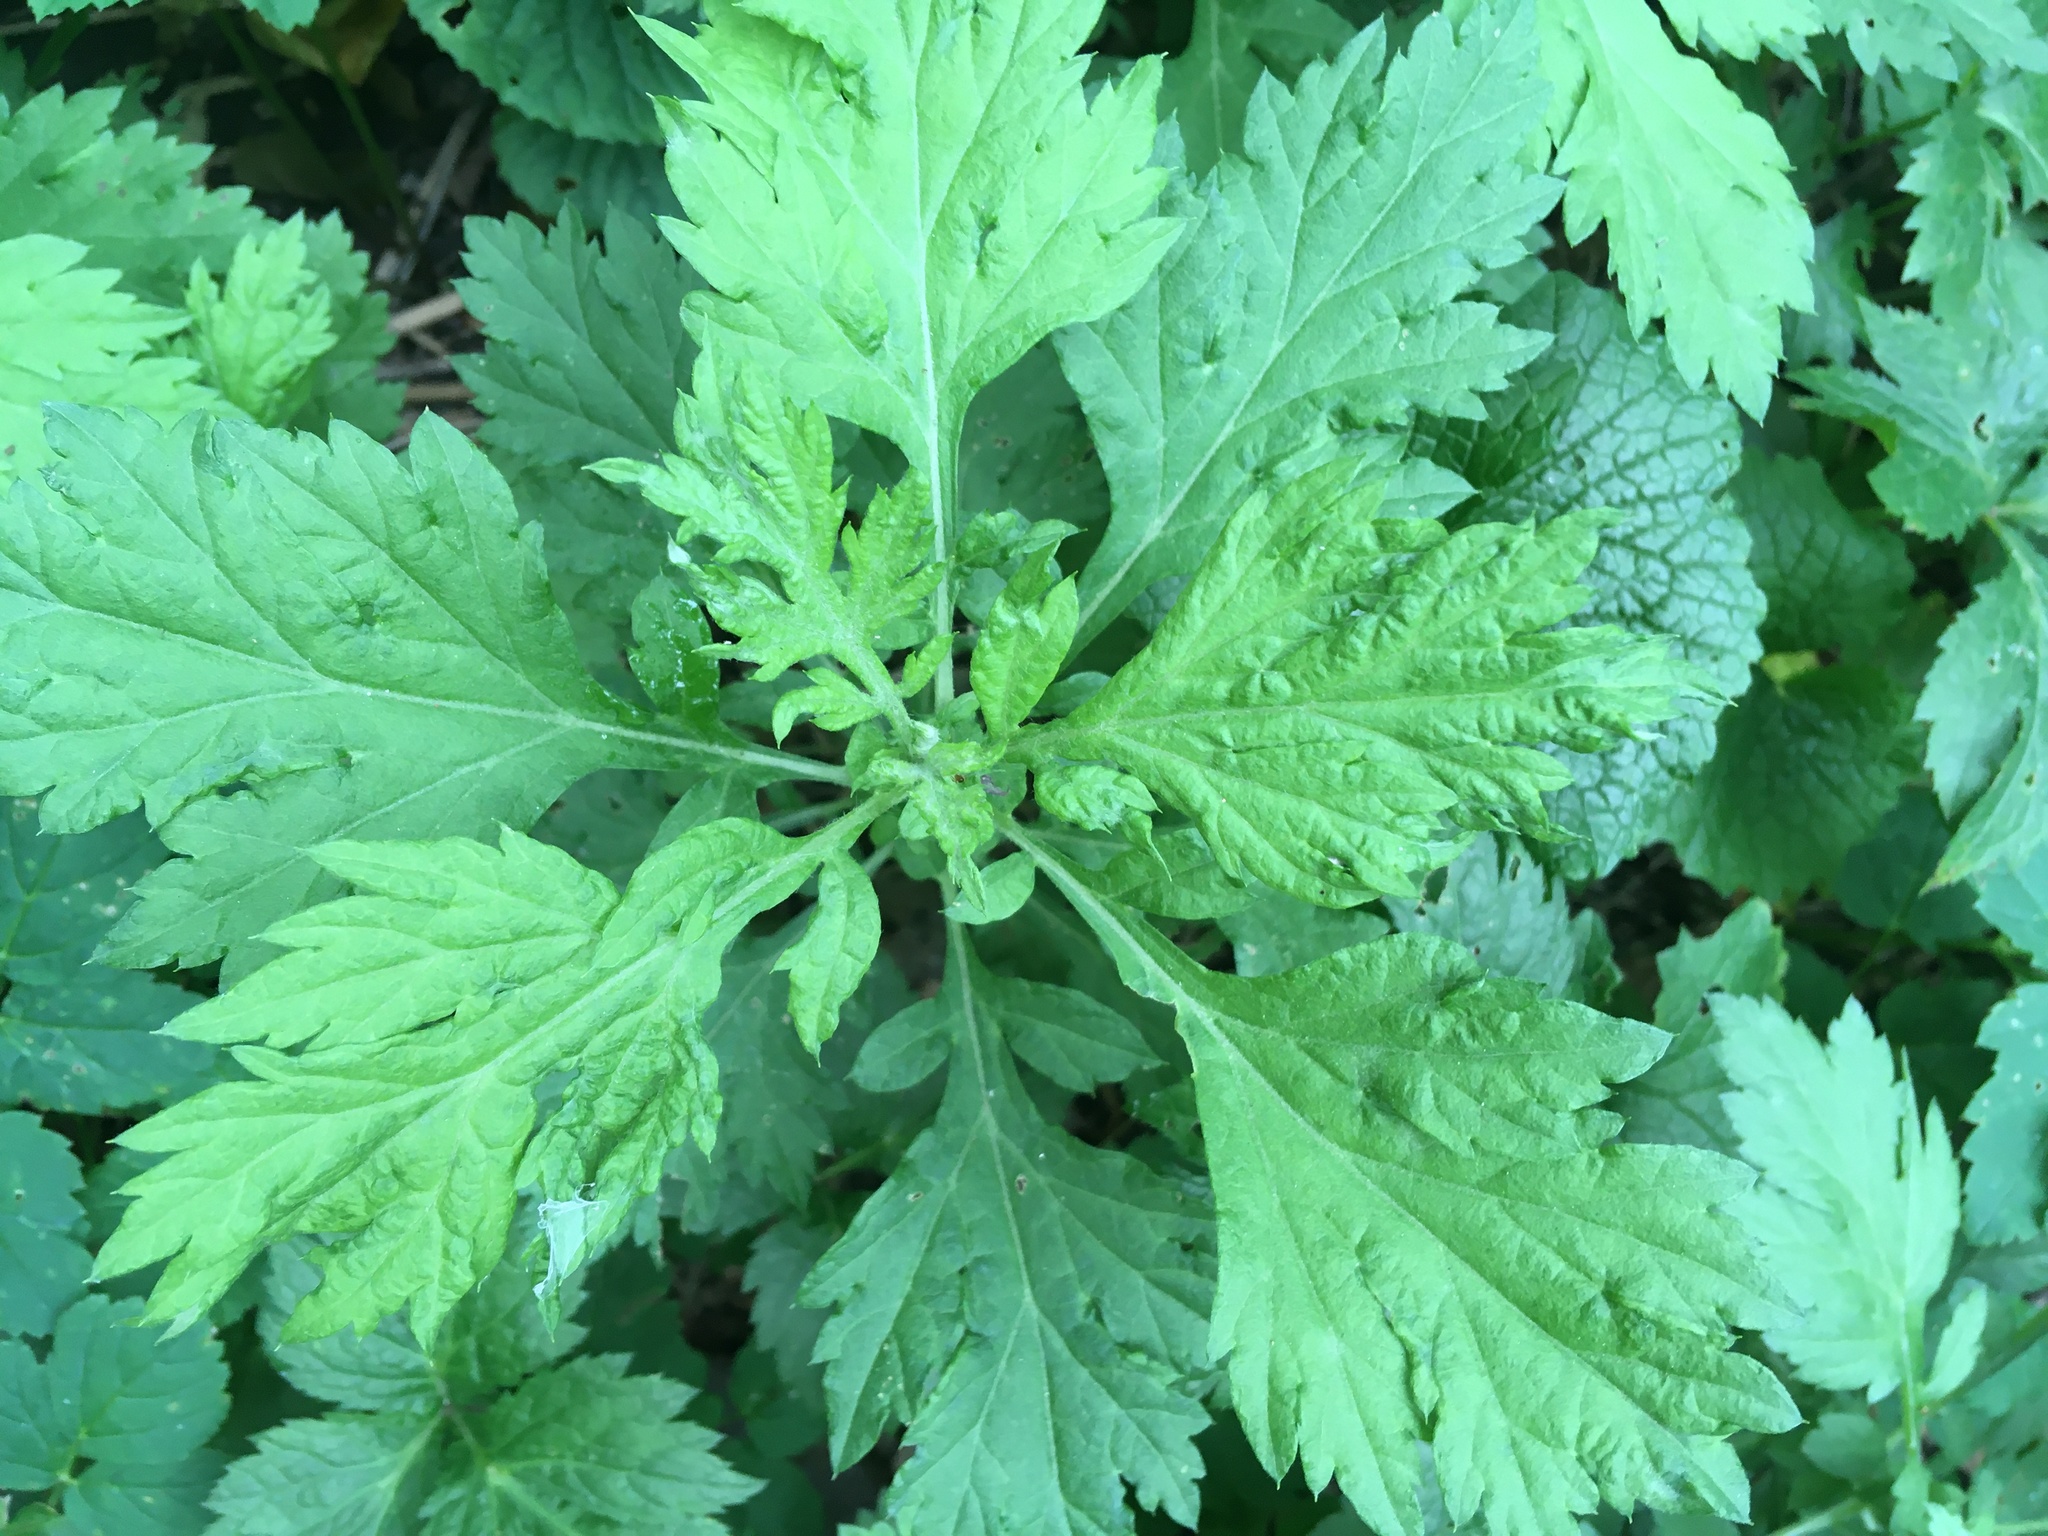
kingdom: Plantae
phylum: Tracheophyta
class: Magnoliopsida
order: Asterales
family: Asteraceae
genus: Artemisia
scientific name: Artemisia vulgaris
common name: Mugwort
